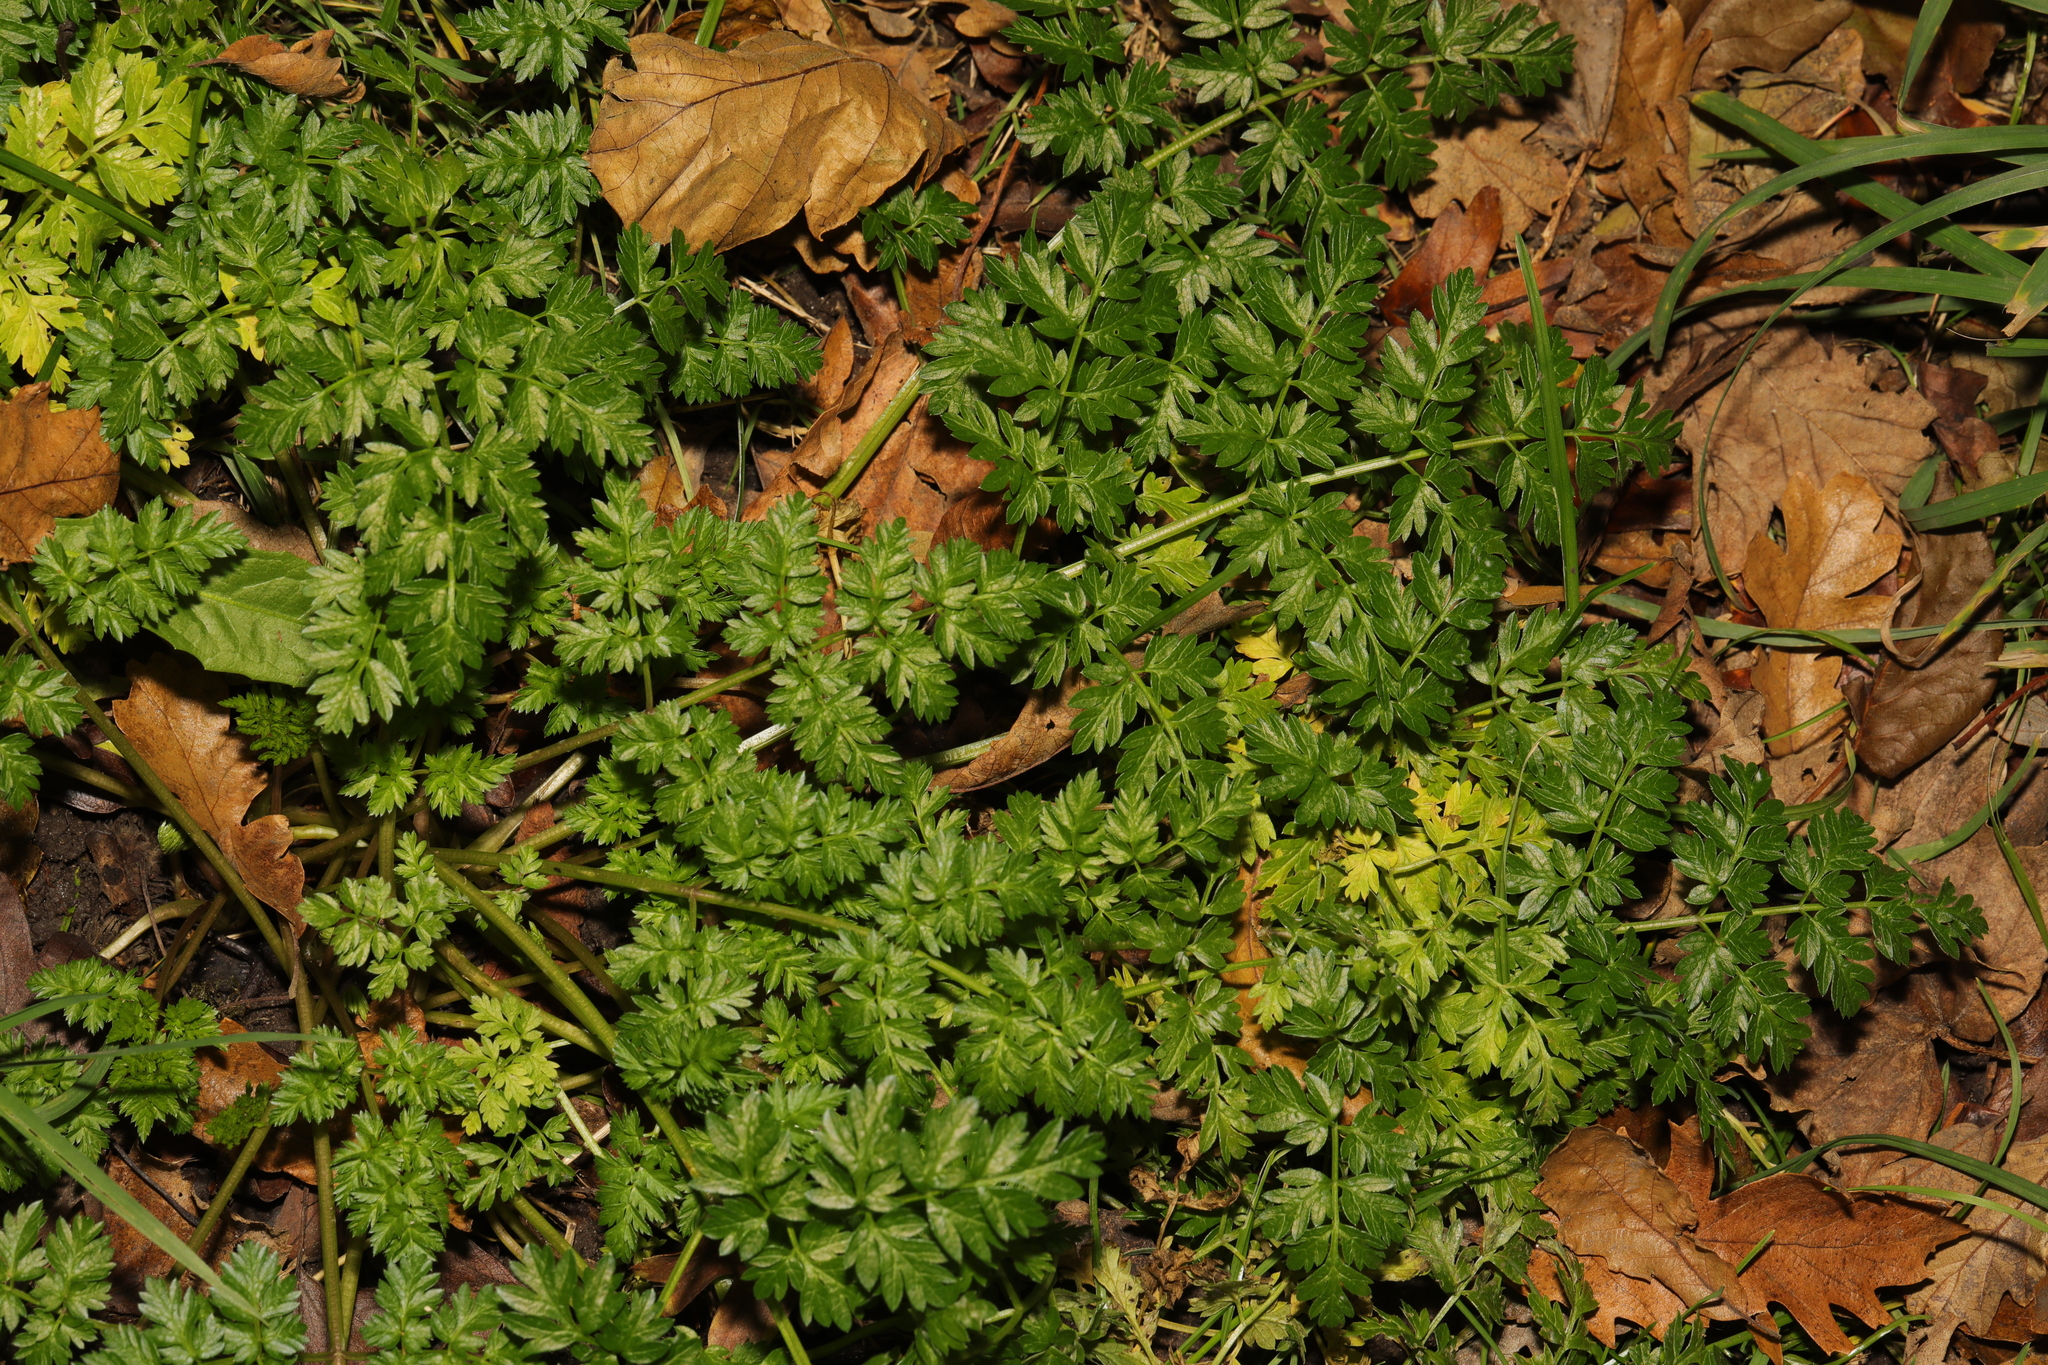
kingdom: Plantae
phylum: Tracheophyta
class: Magnoliopsida
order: Apiales
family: Apiaceae
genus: Anthriscus
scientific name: Anthriscus sylvestris
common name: Cow parsley
